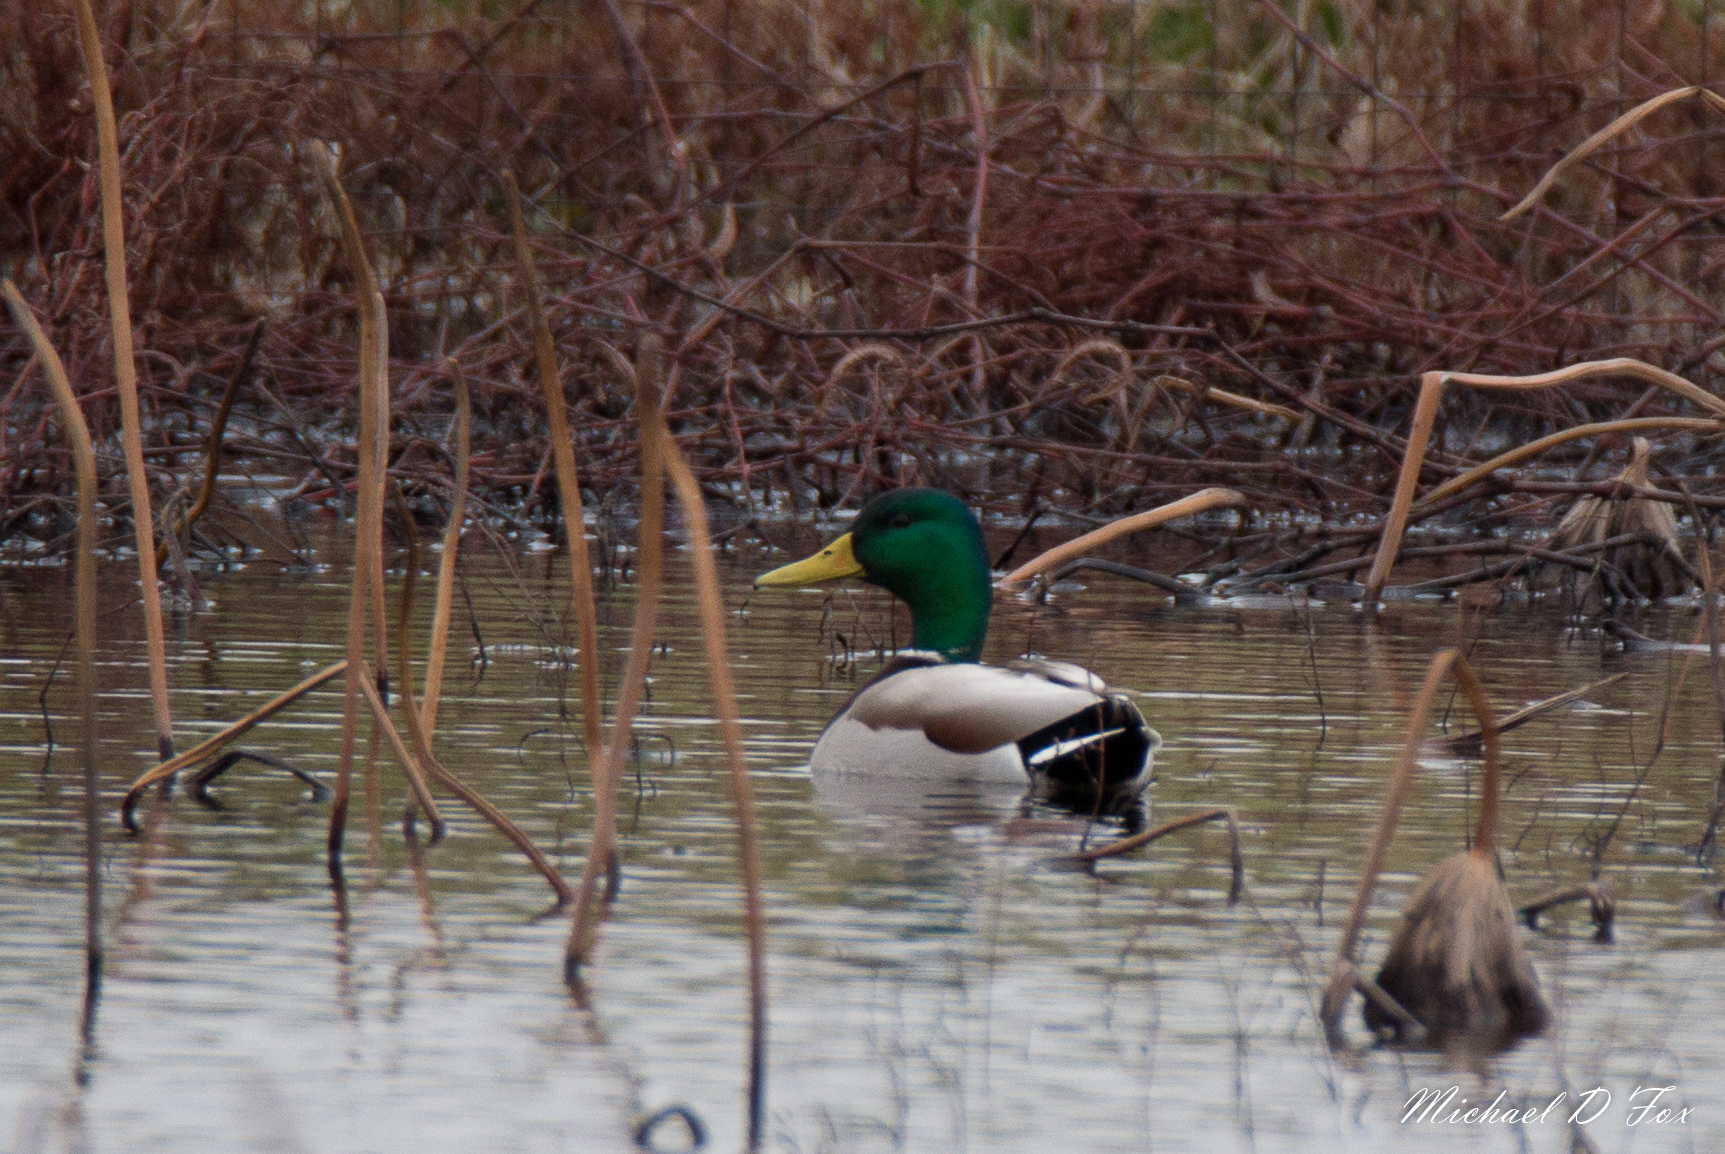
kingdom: Animalia
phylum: Chordata
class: Aves
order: Anseriformes
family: Anatidae
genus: Anas
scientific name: Anas platyrhynchos
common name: Mallard
